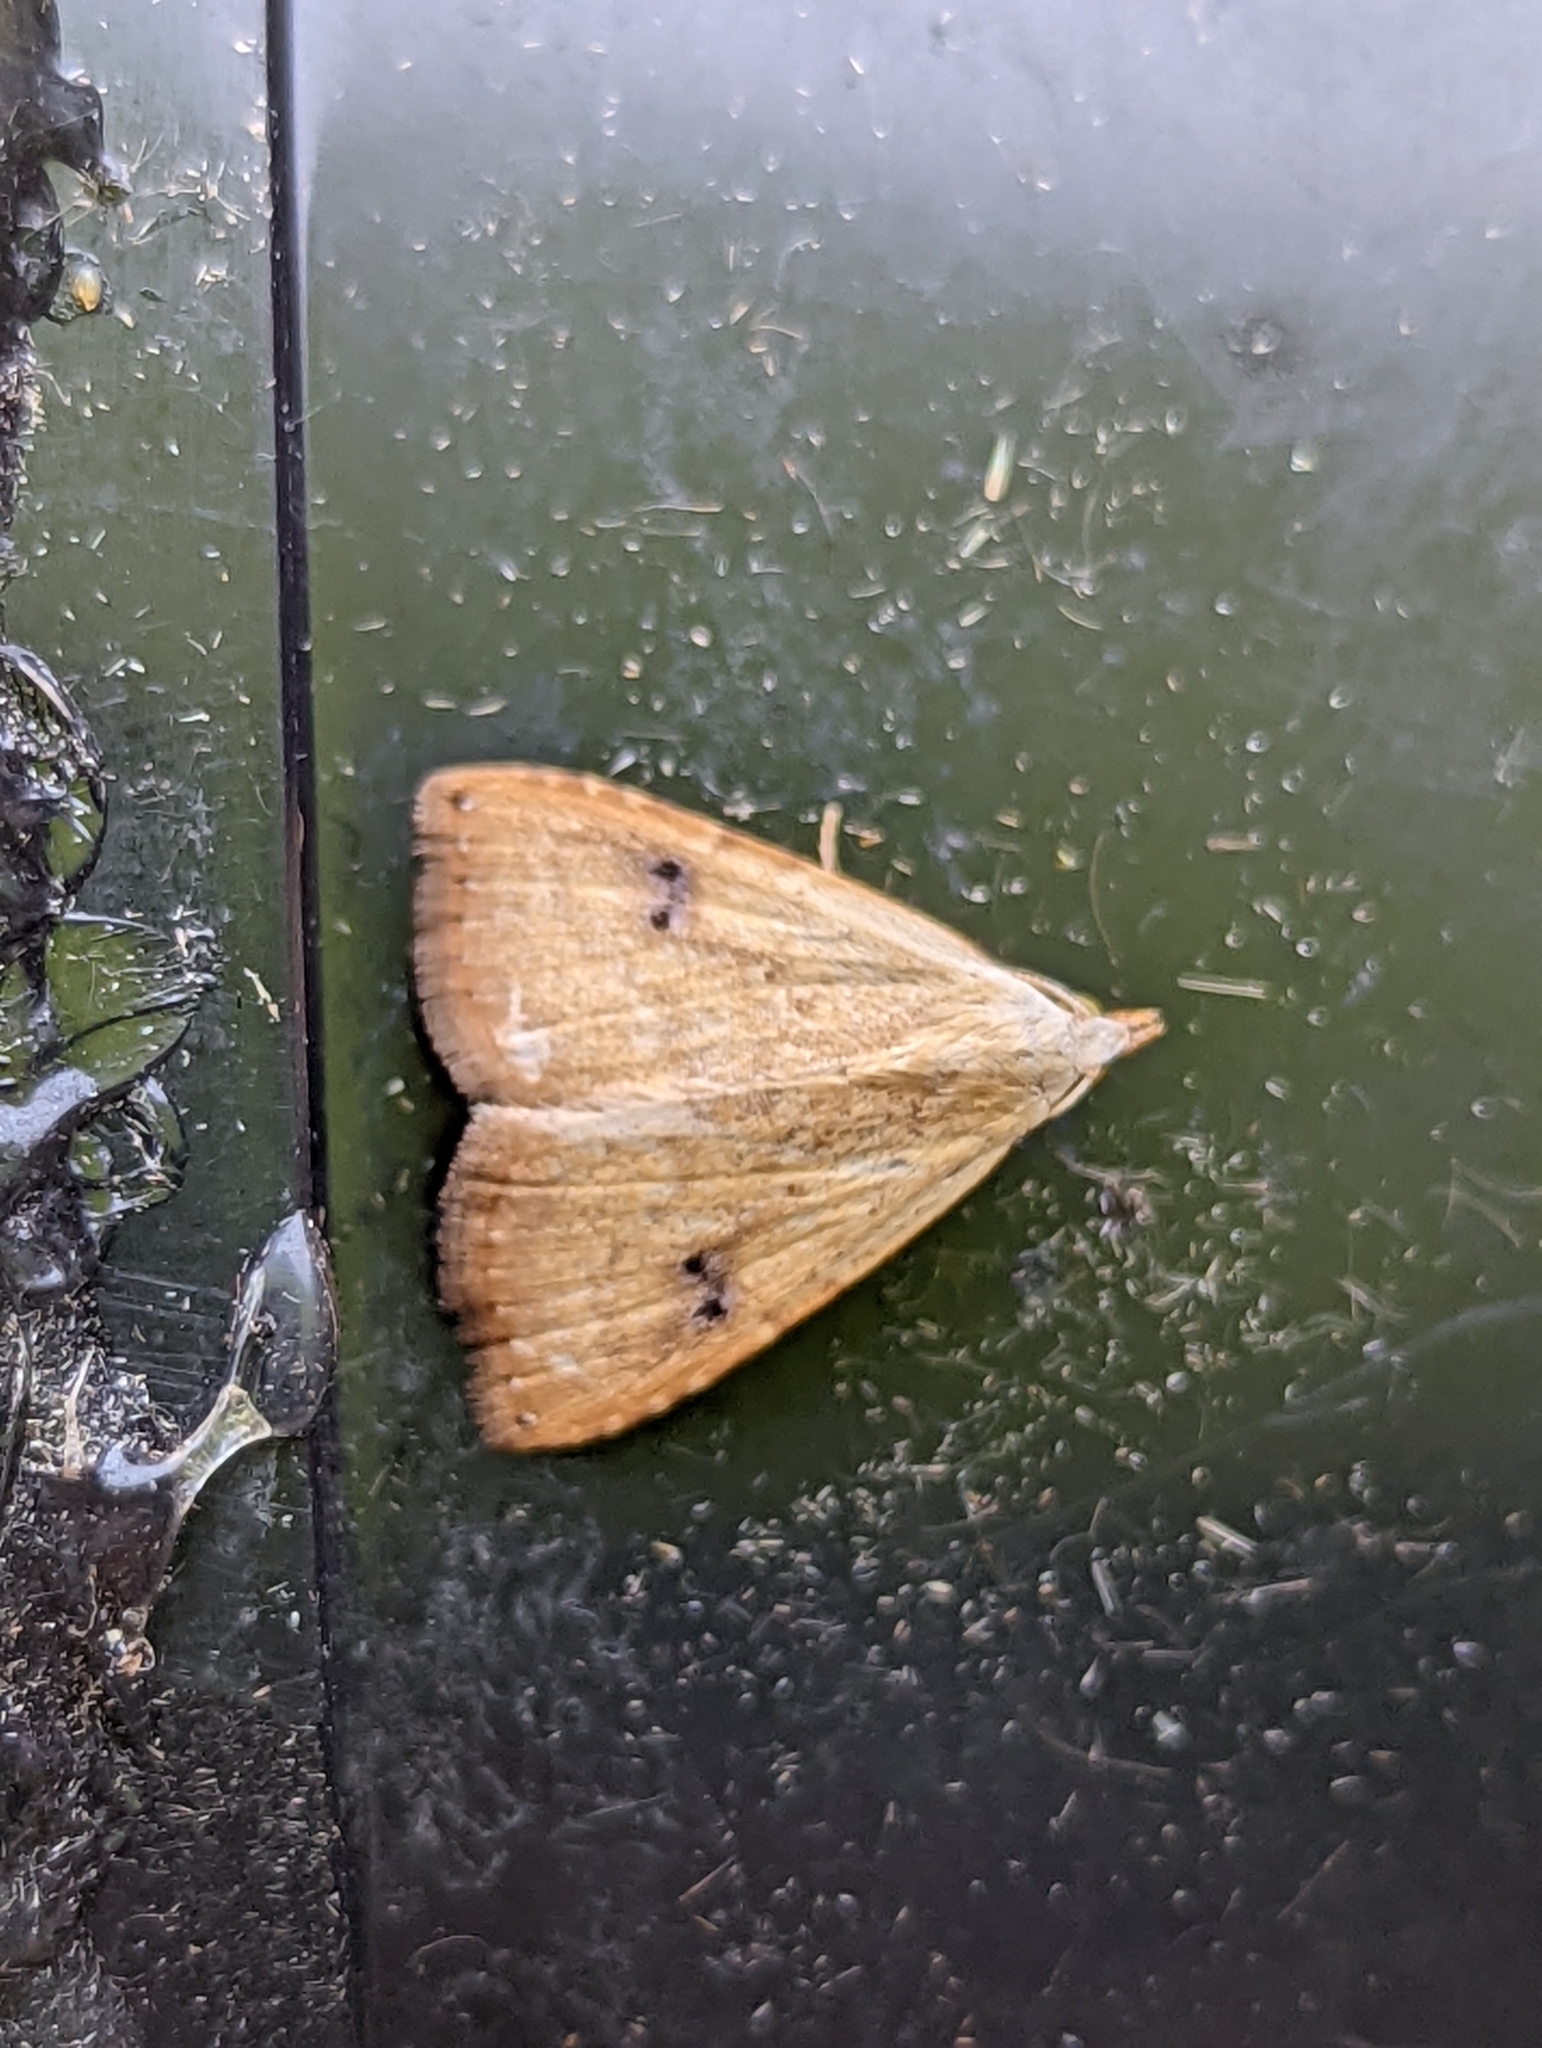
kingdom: Animalia
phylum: Arthropoda
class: Insecta
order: Lepidoptera
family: Erebidae
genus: Rivula
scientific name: Rivula sericealis
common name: Straw dot
